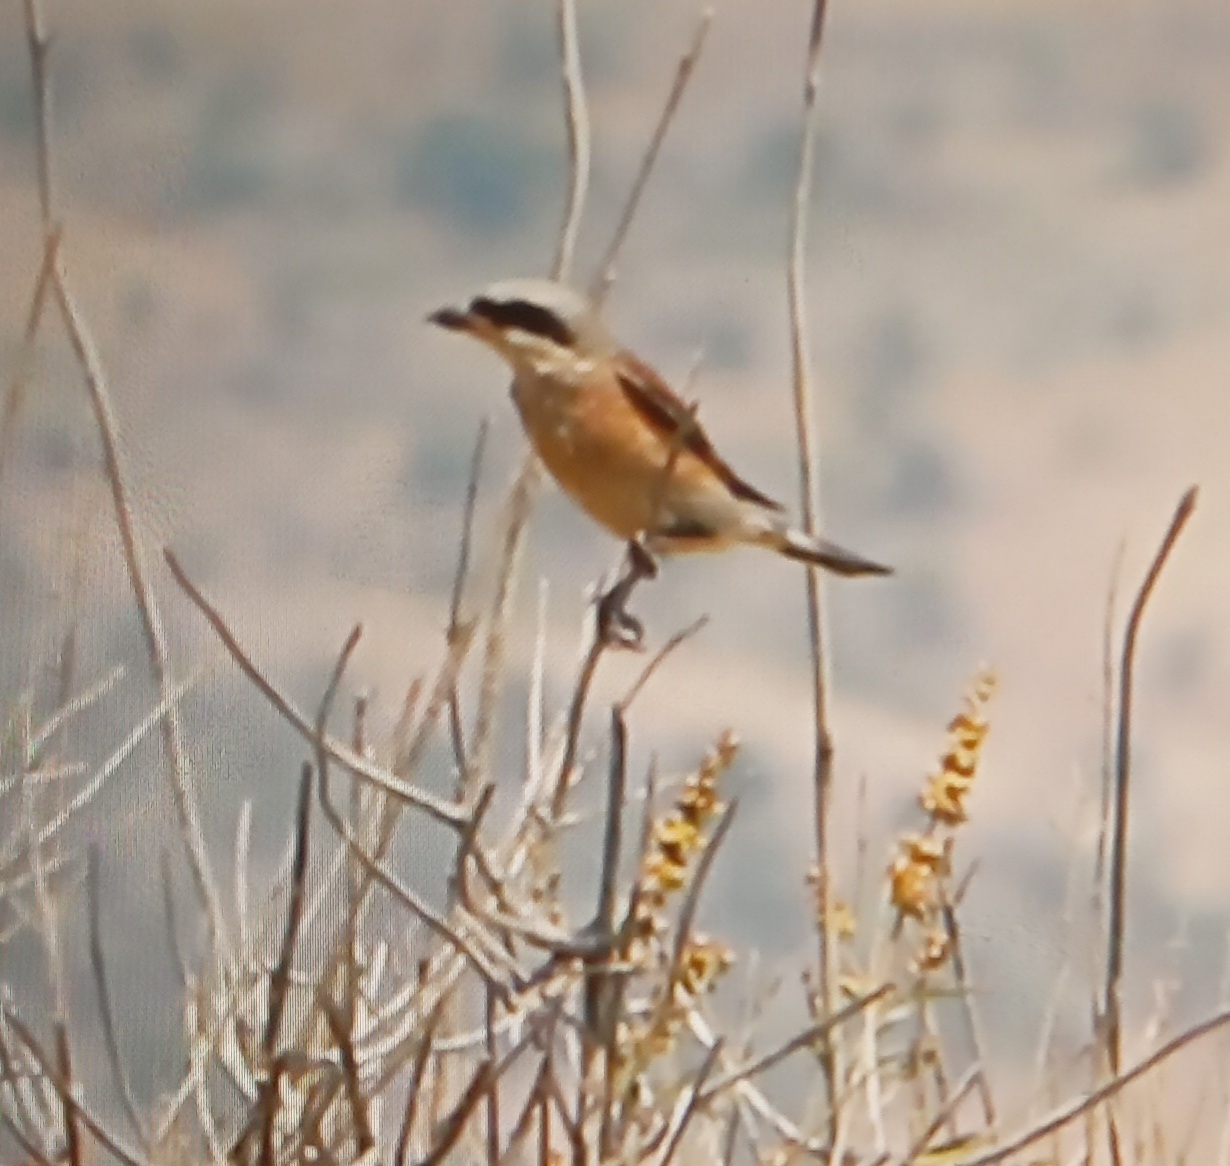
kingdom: Animalia
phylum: Chordata
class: Aves
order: Passeriformes
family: Laniidae
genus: Lanius
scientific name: Lanius collurio
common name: Red-backed shrike
